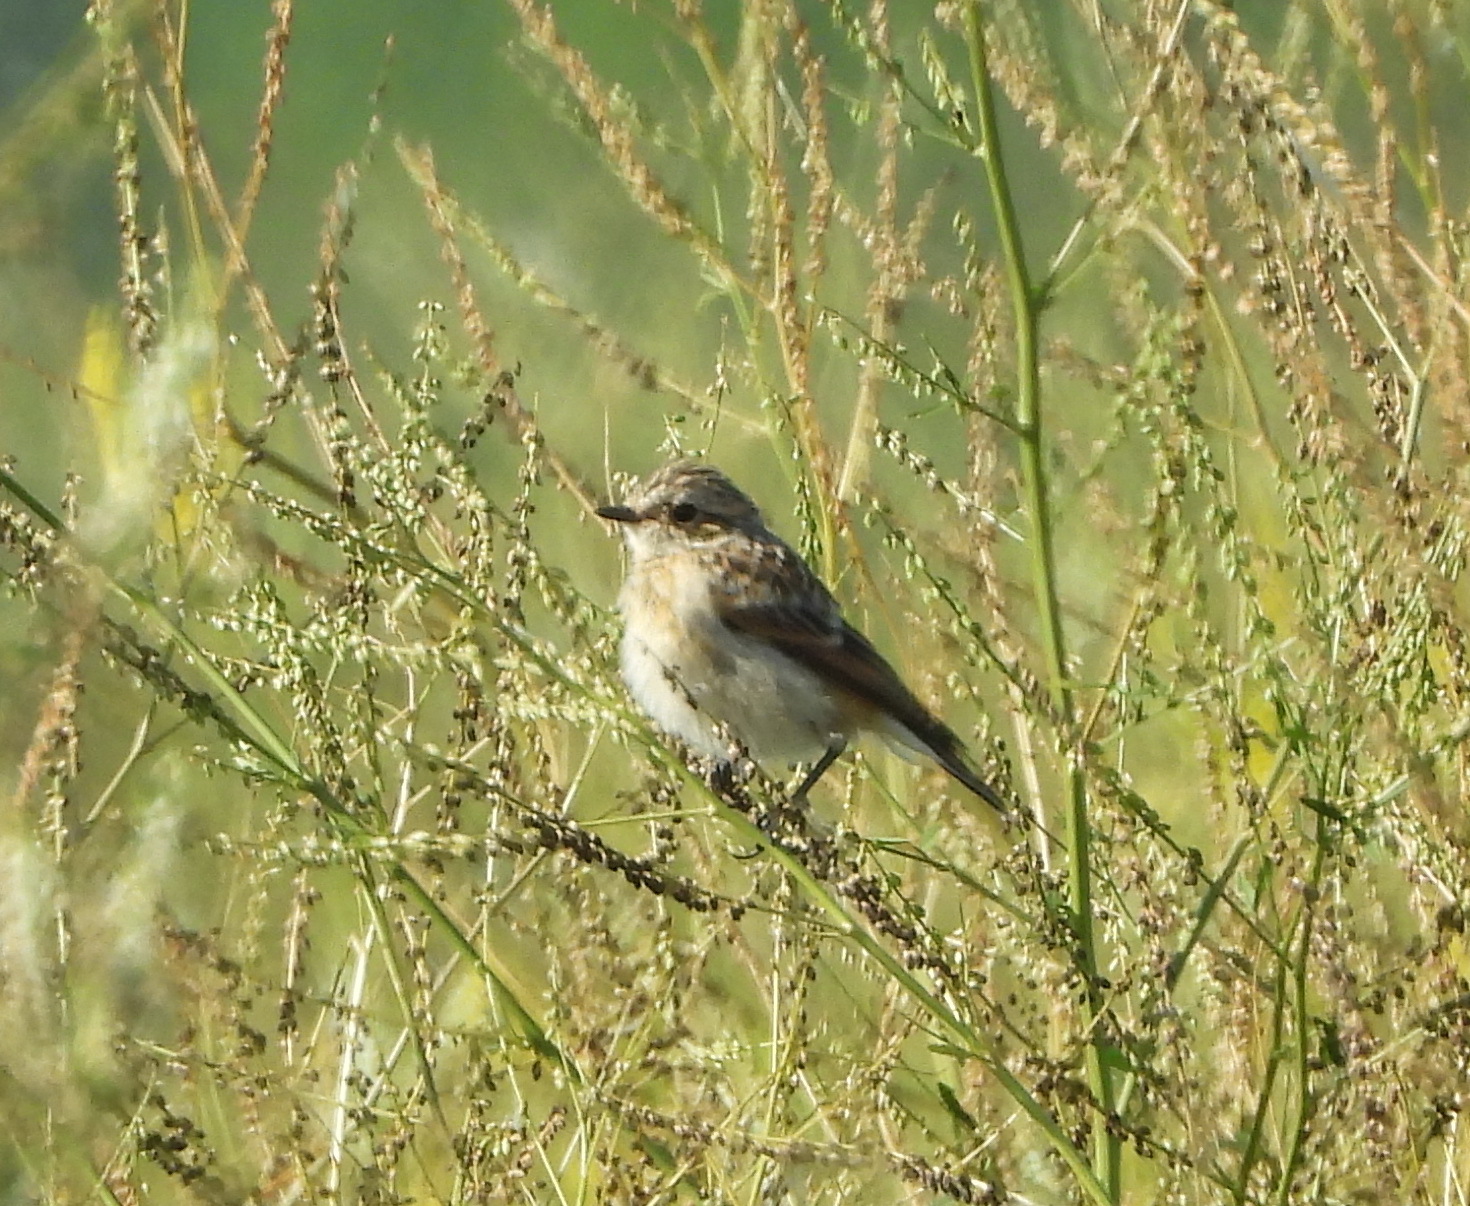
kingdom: Animalia
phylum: Chordata
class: Aves
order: Passeriformes
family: Muscicapidae
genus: Saxicola
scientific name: Saxicola rubetra
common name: Whinchat
